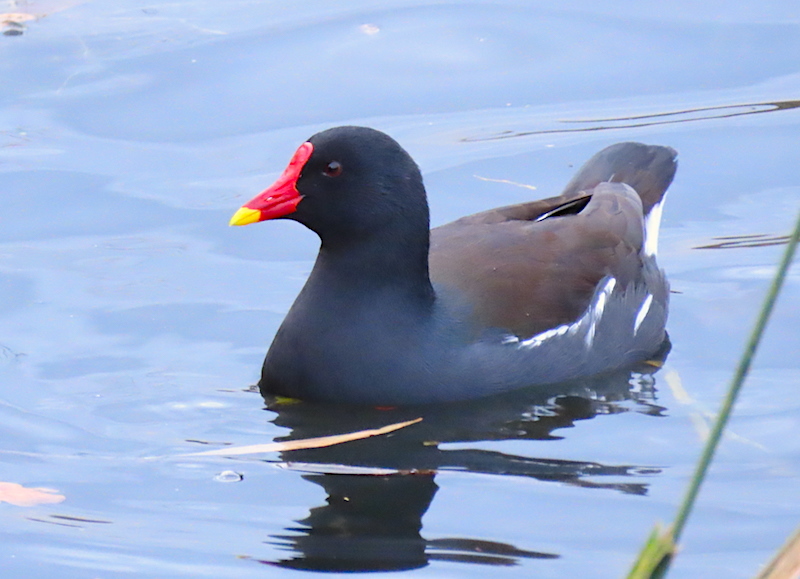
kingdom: Animalia
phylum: Chordata
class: Aves
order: Gruiformes
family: Rallidae
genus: Gallinula
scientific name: Gallinula chloropus
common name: Common moorhen
